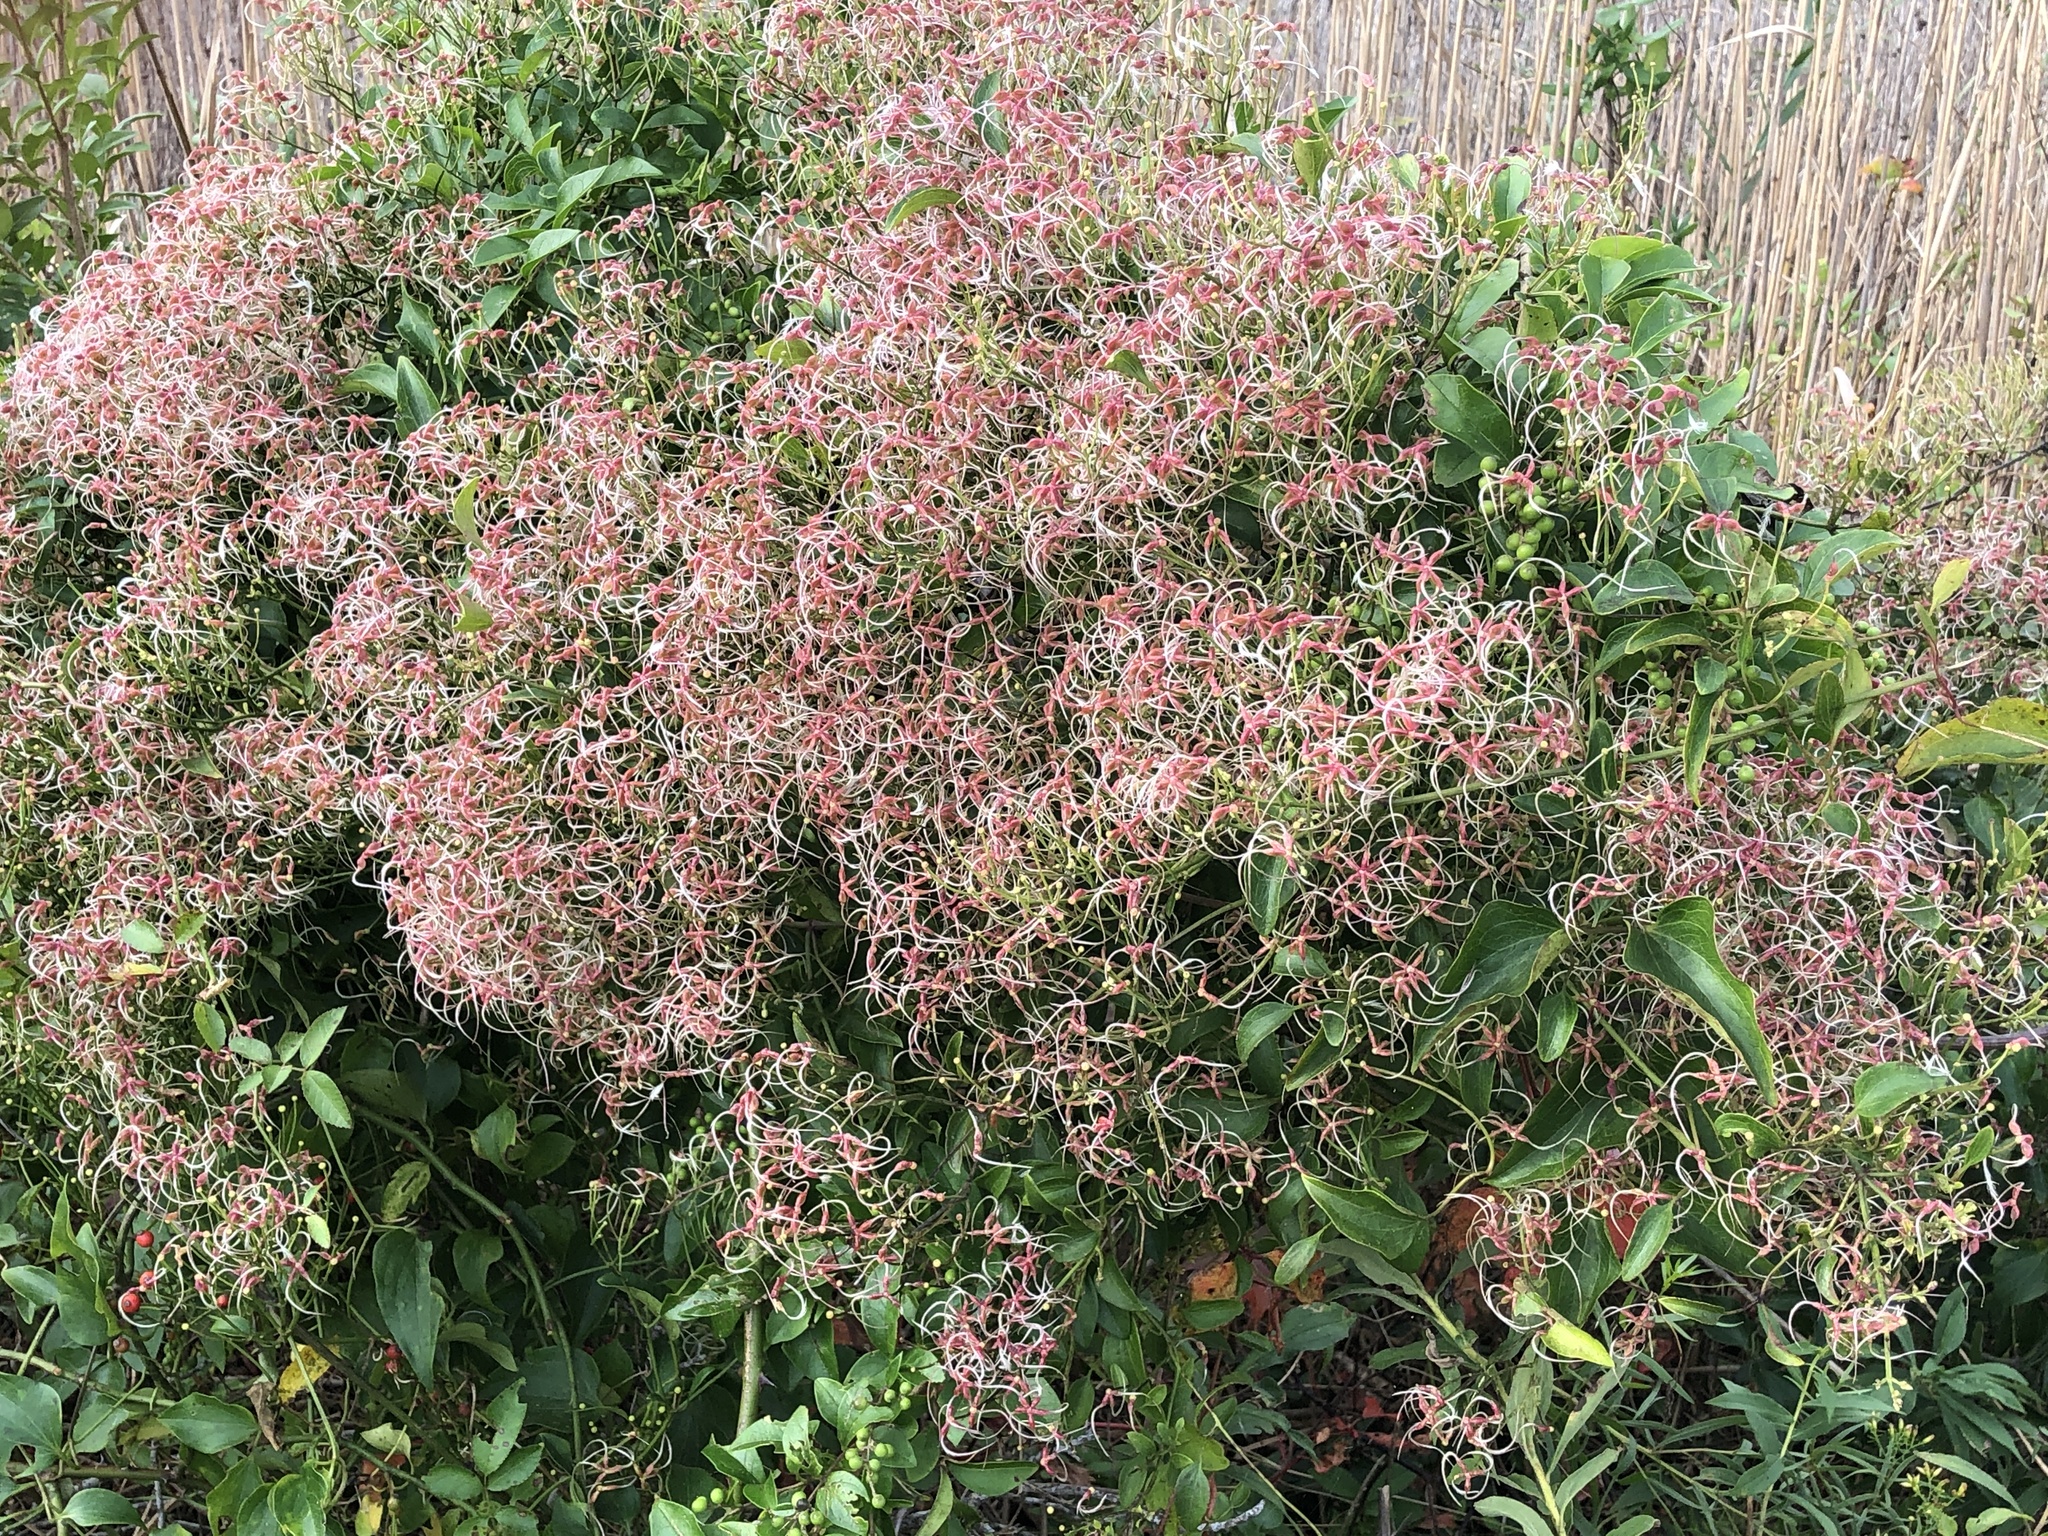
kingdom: Plantae
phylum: Tracheophyta
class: Magnoliopsida
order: Ranunculales
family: Ranunculaceae
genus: Clematis
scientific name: Clematis terniflora
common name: Sweet autumn clematis
